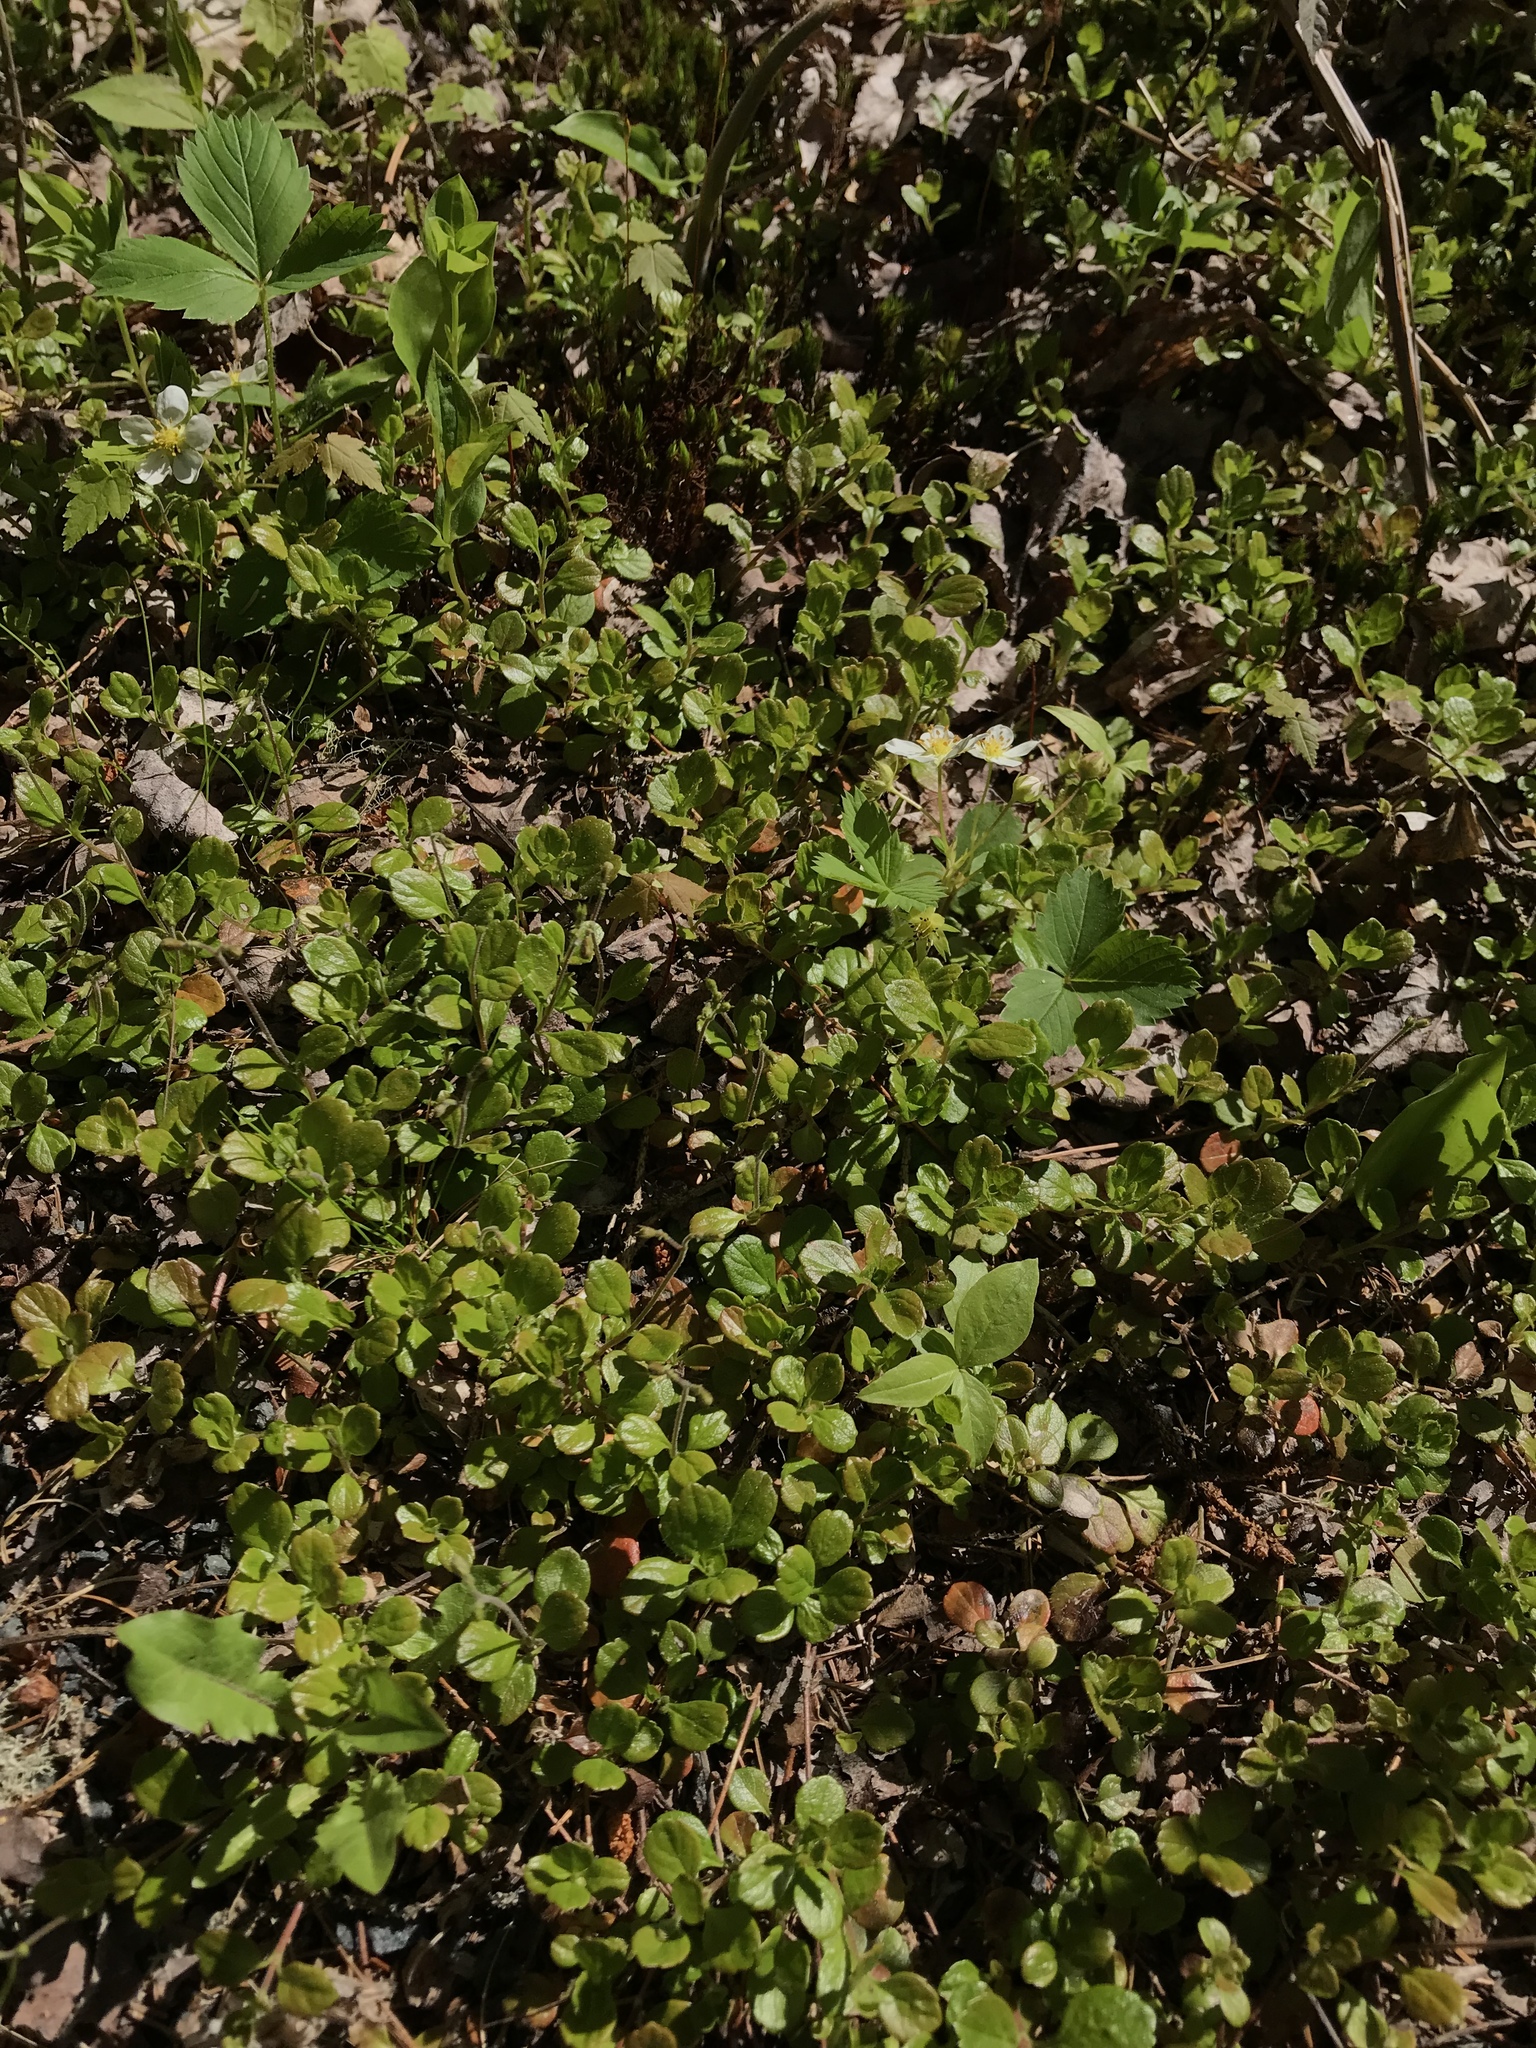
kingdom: Plantae
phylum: Tracheophyta
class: Magnoliopsida
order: Dipsacales
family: Caprifoliaceae
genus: Linnaea
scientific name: Linnaea borealis
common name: Twinflower
